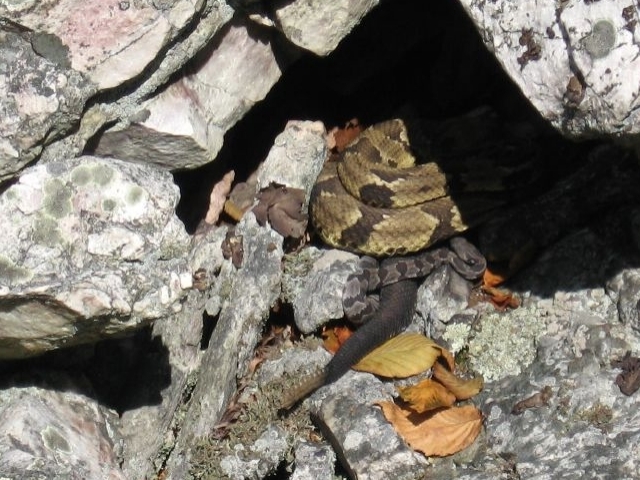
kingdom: Animalia
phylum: Chordata
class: Squamata
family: Viperidae
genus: Crotalus
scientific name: Crotalus horridus
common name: Timber rattlesnake
